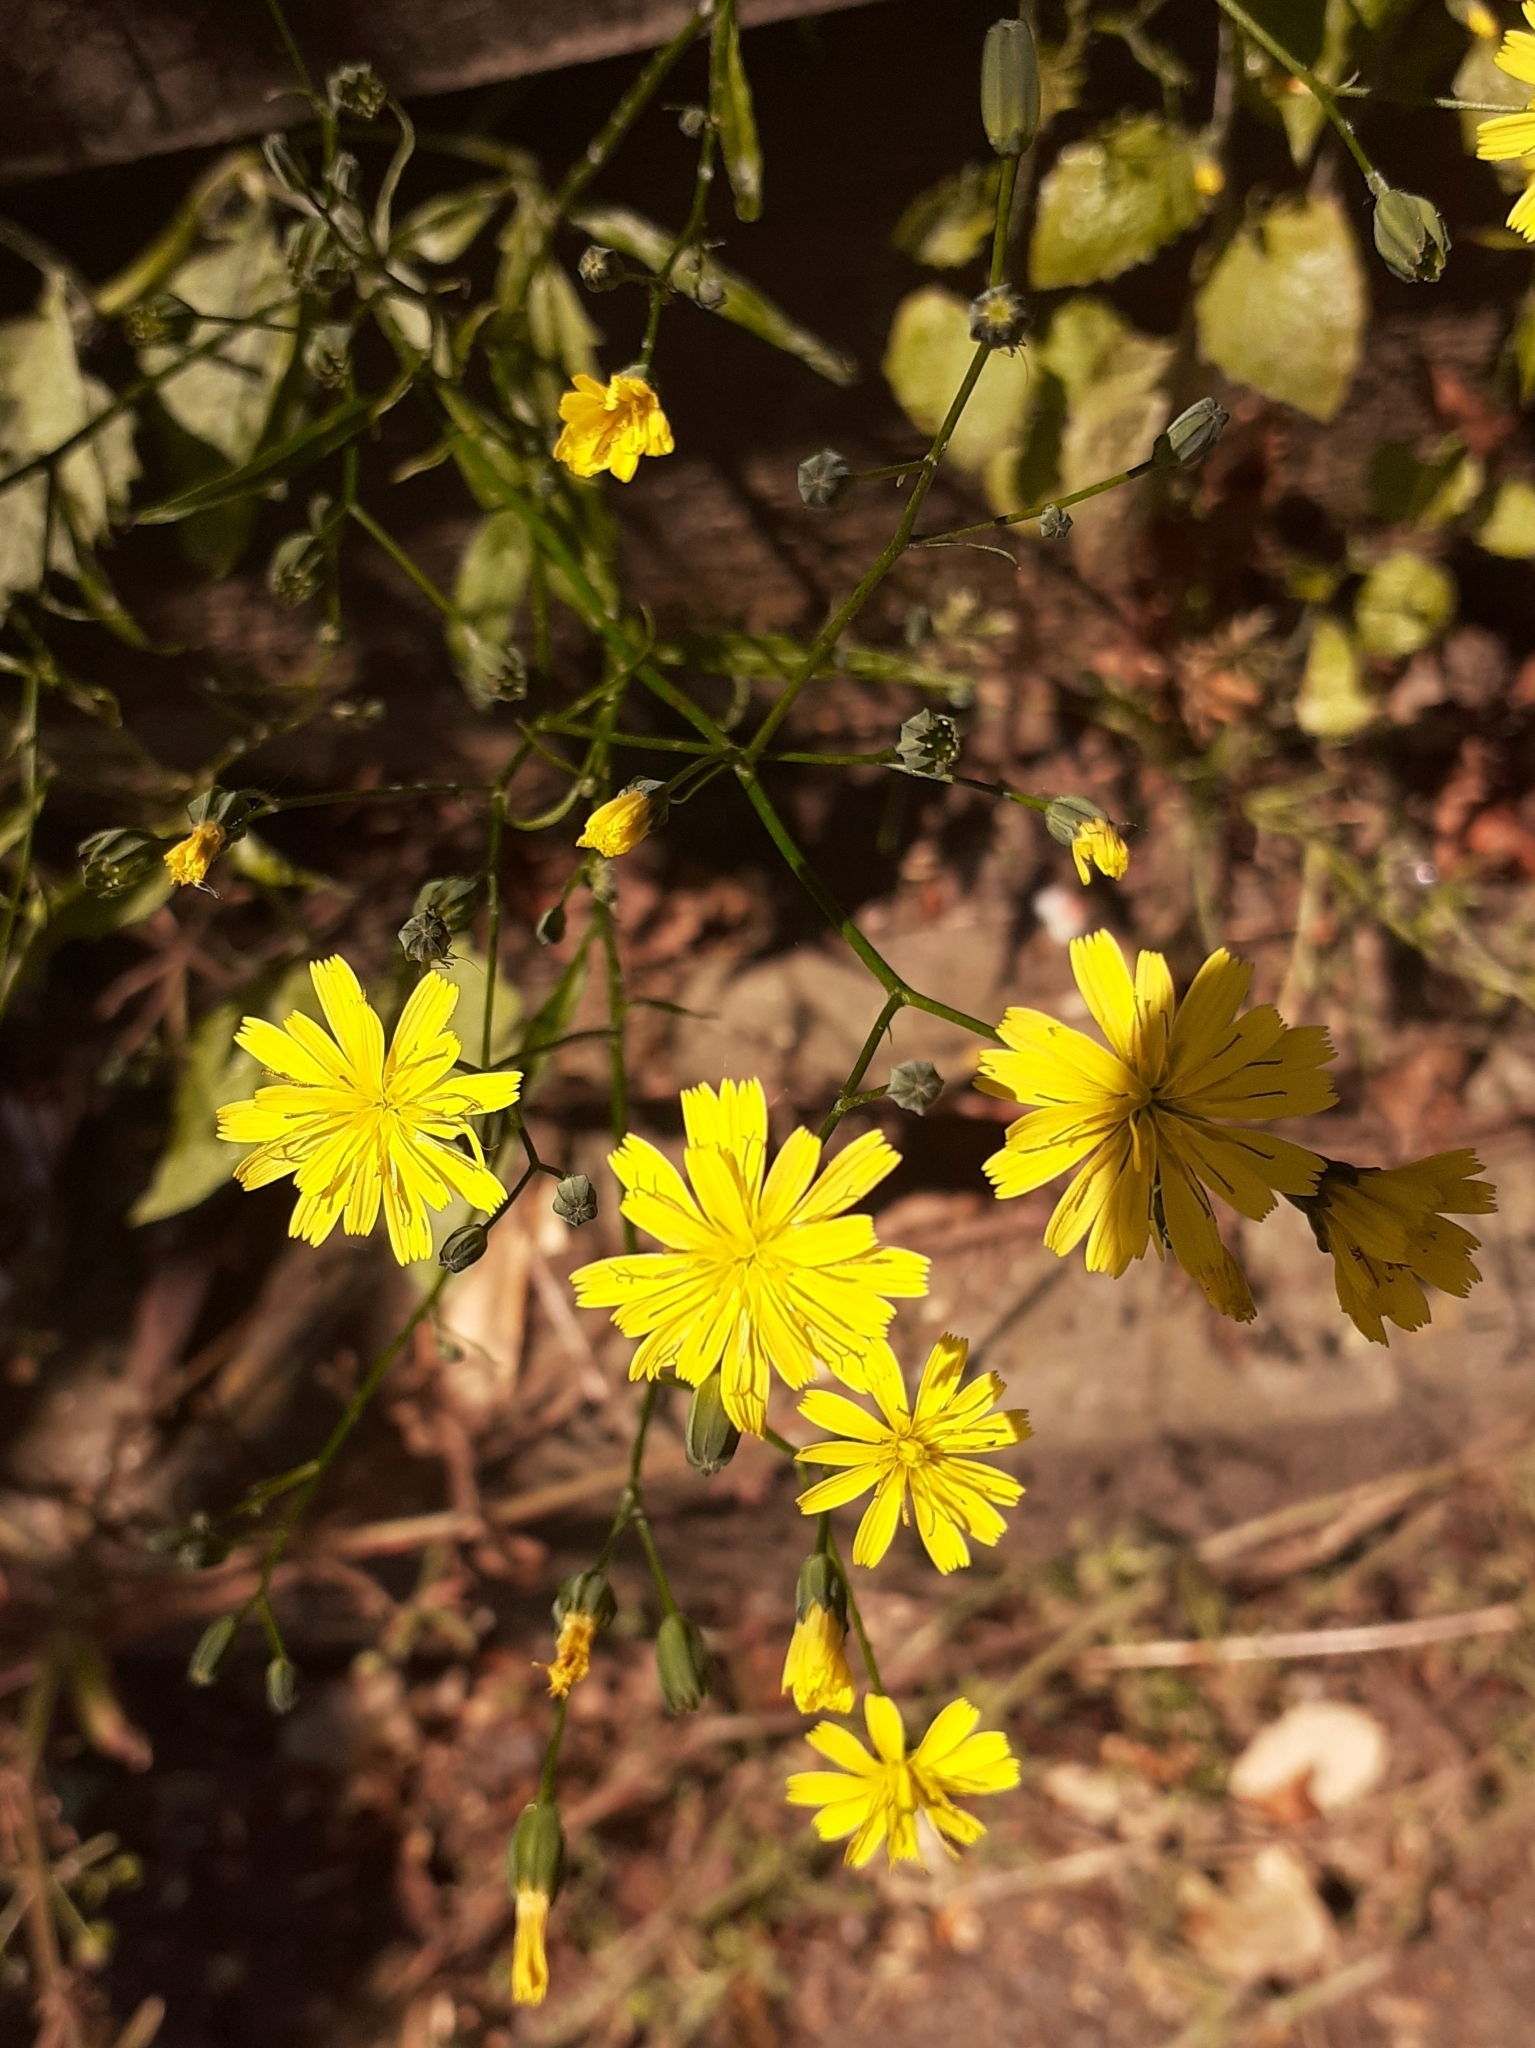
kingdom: Plantae
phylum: Tracheophyta
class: Magnoliopsida
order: Asterales
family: Asteraceae
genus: Lapsana
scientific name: Lapsana communis
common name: Nipplewort
